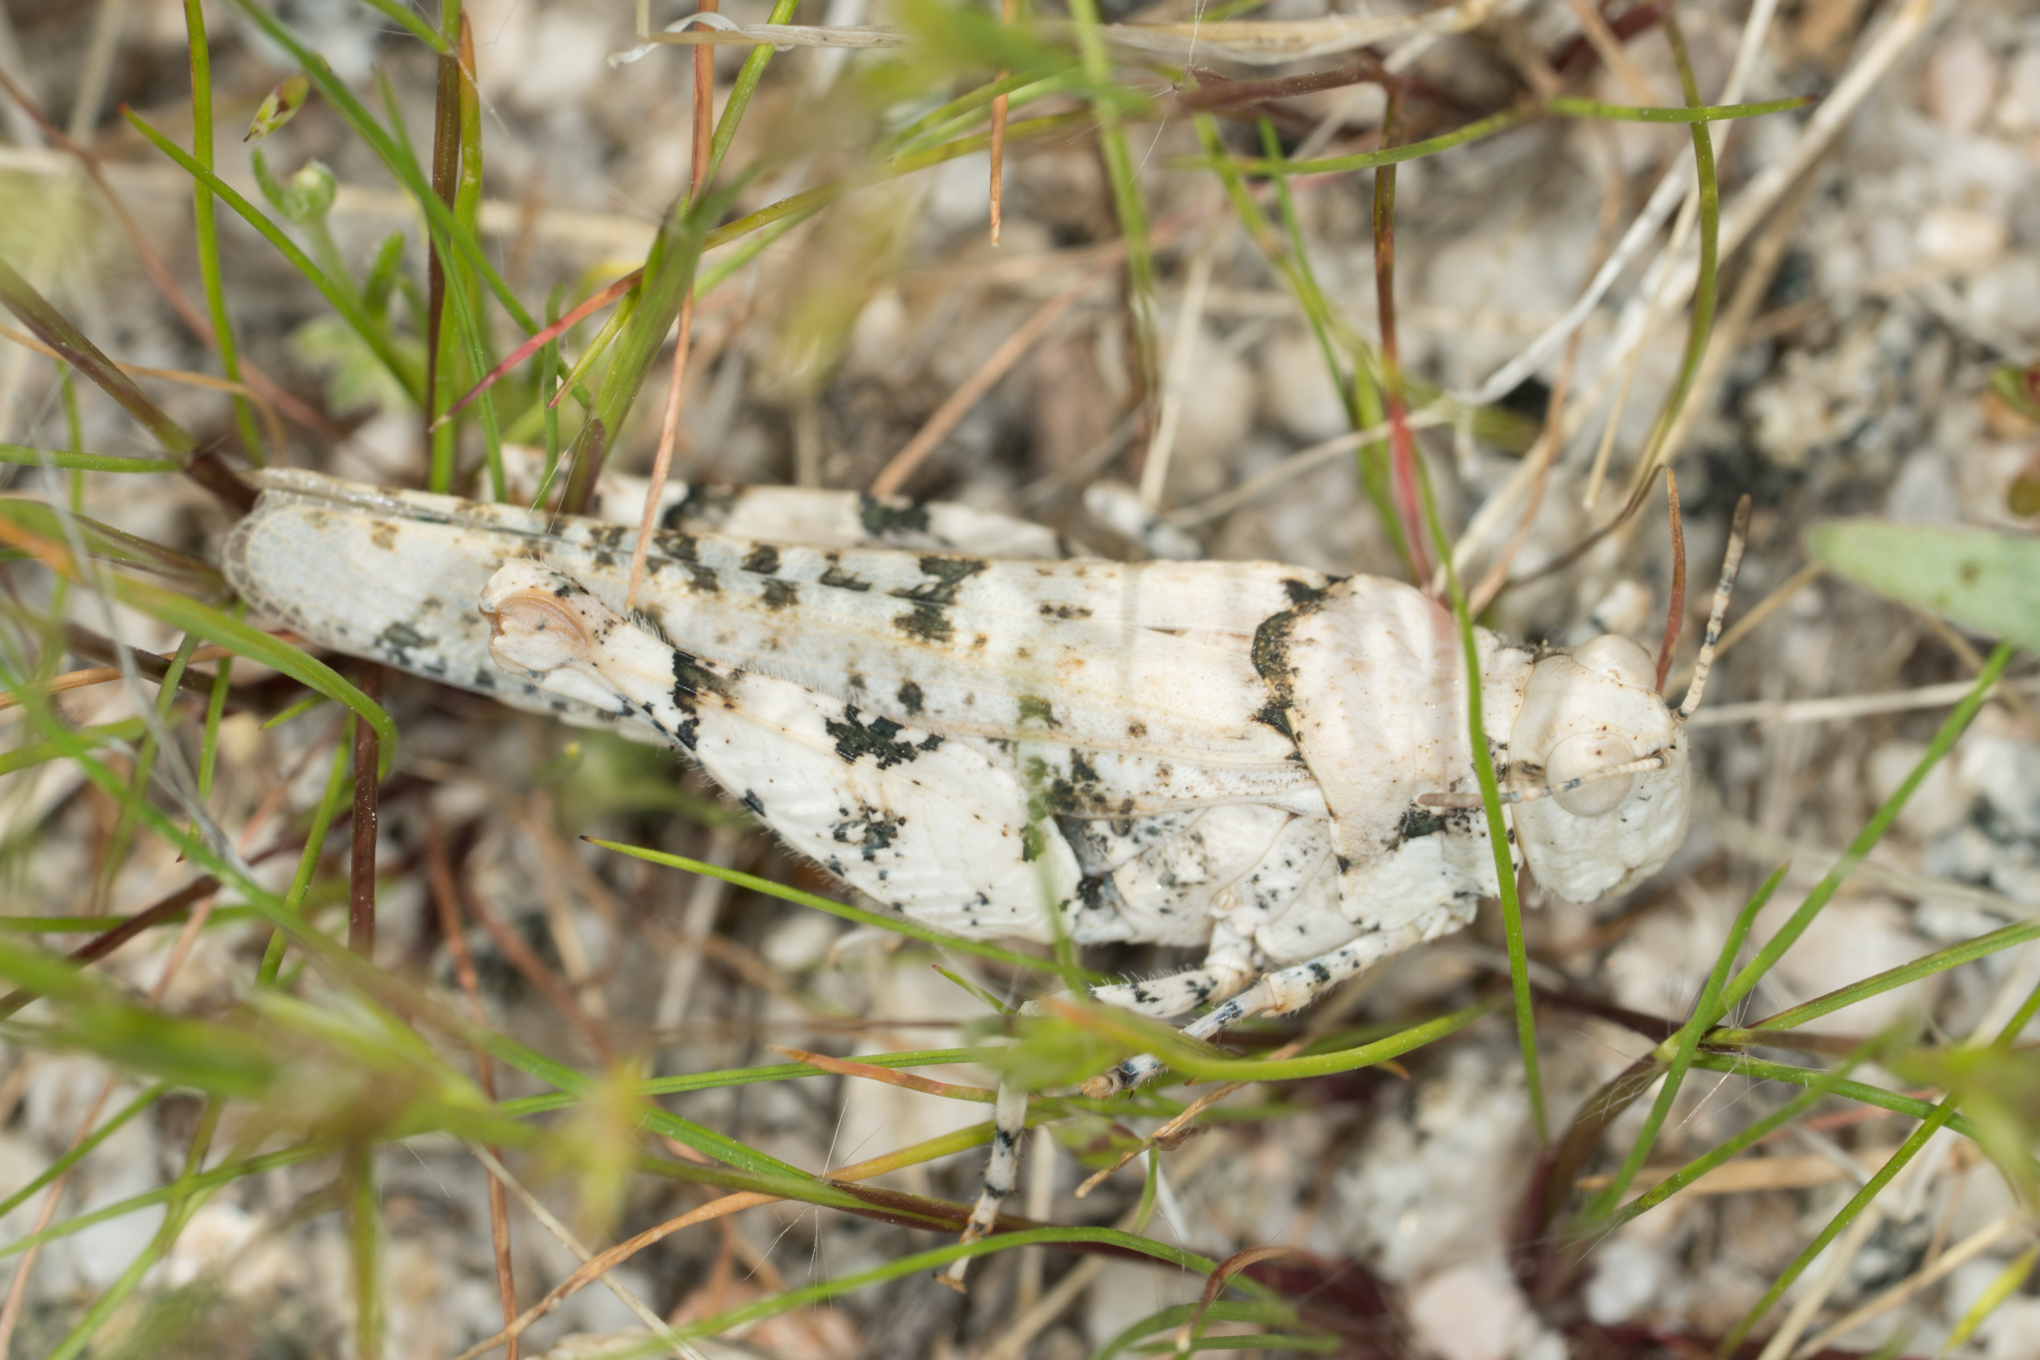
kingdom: Animalia
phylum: Arthropoda
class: Insecta
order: Orthoptera
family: Acrididae
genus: Cibolacris
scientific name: Cibolacris parviceps
